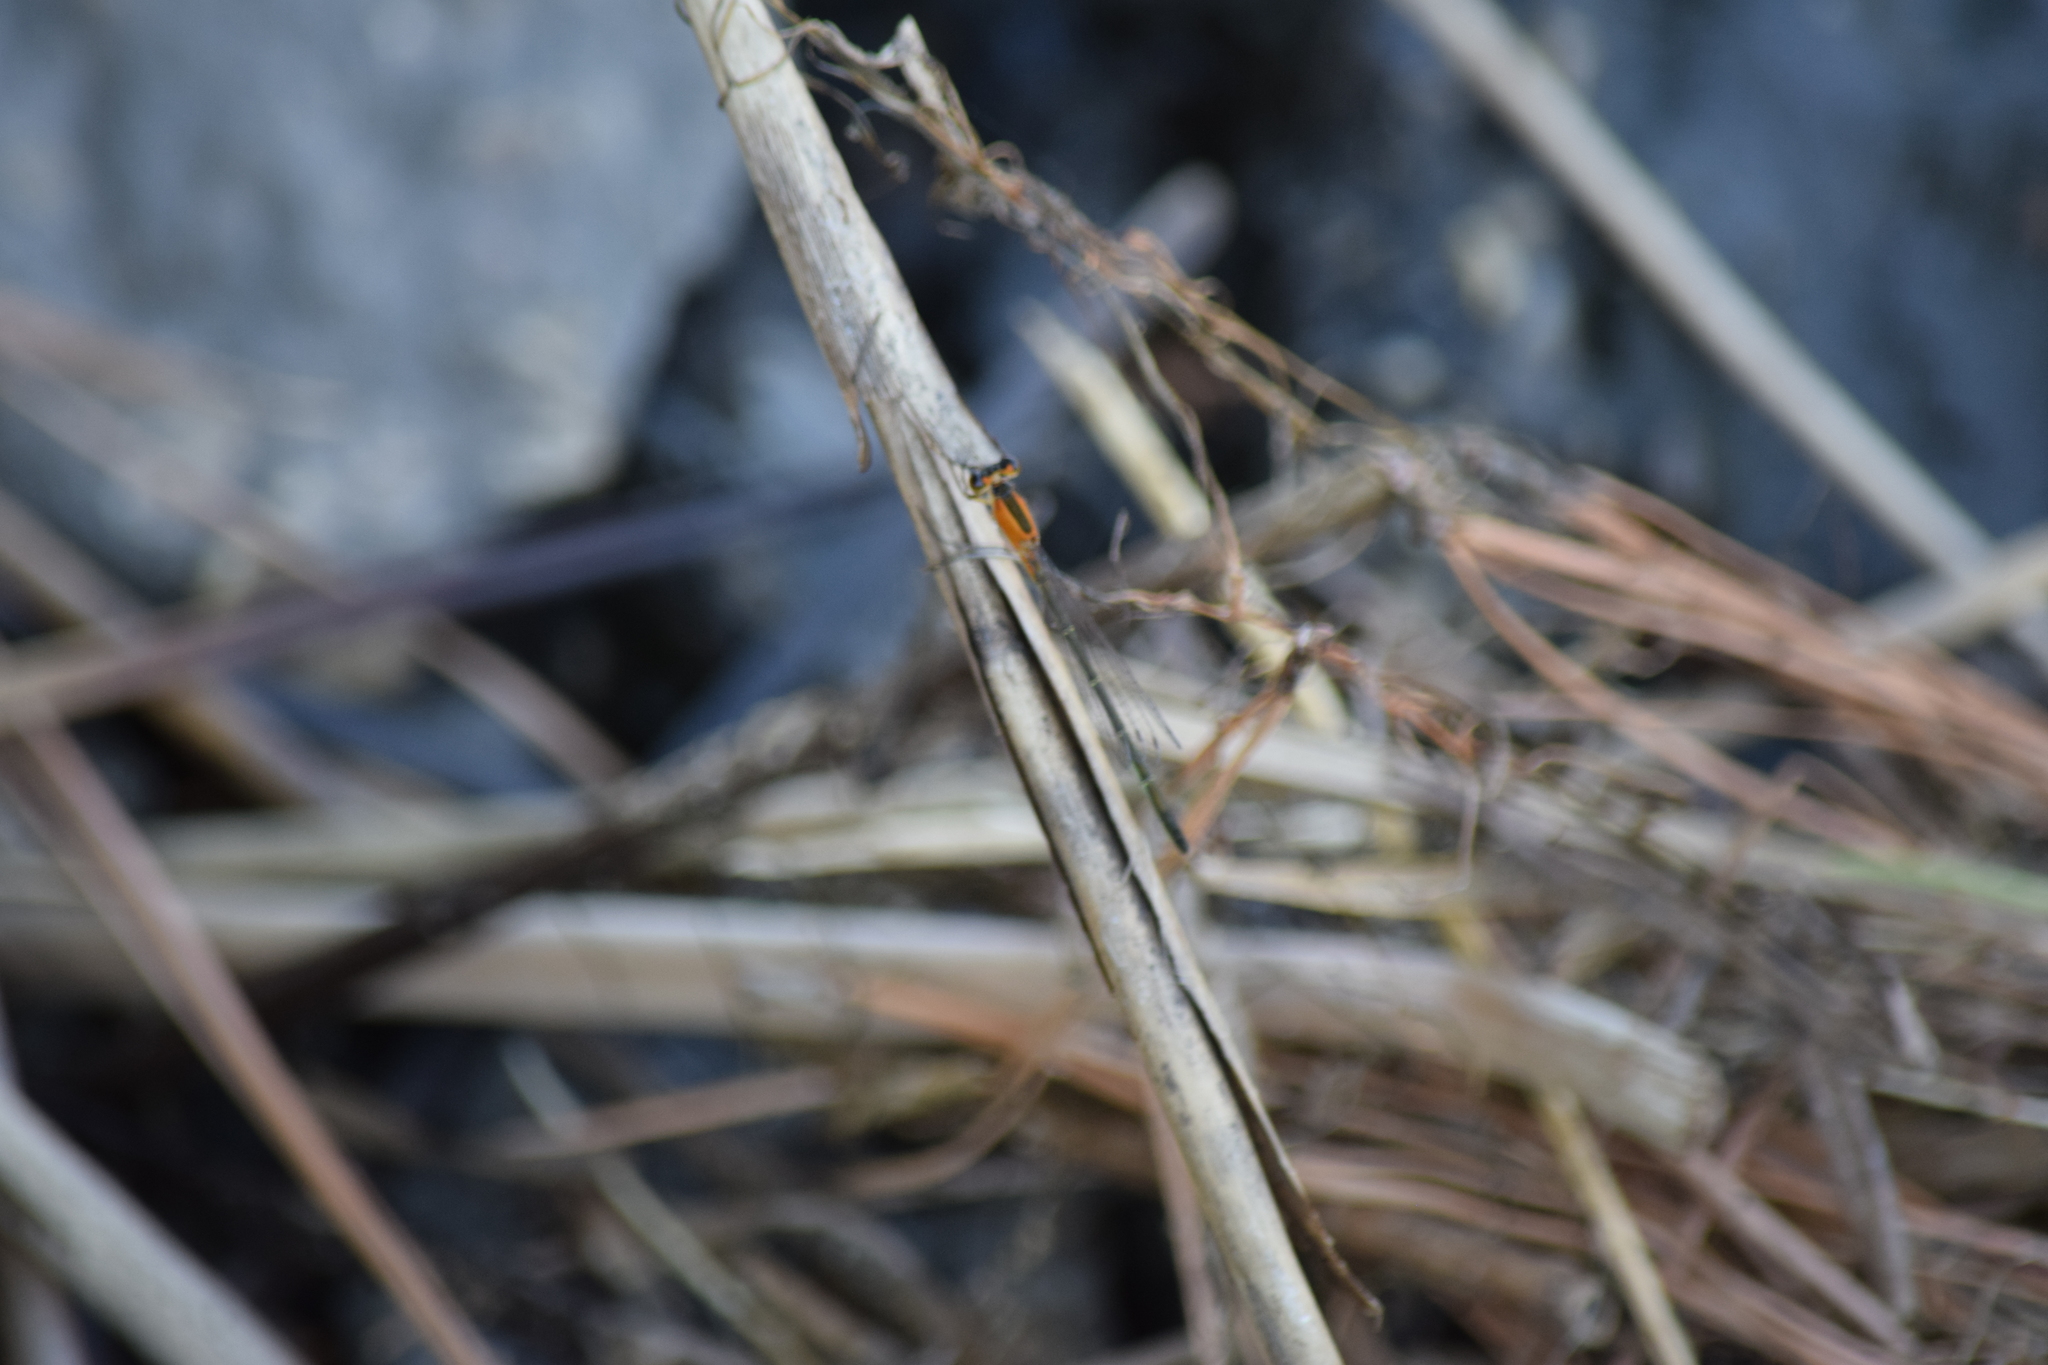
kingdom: Animalia
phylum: Arthropoda
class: Insecta
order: Odonata
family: Coenagrionidae
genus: Ischnura
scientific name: Ischnura ramburii
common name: Rambur's forktail
